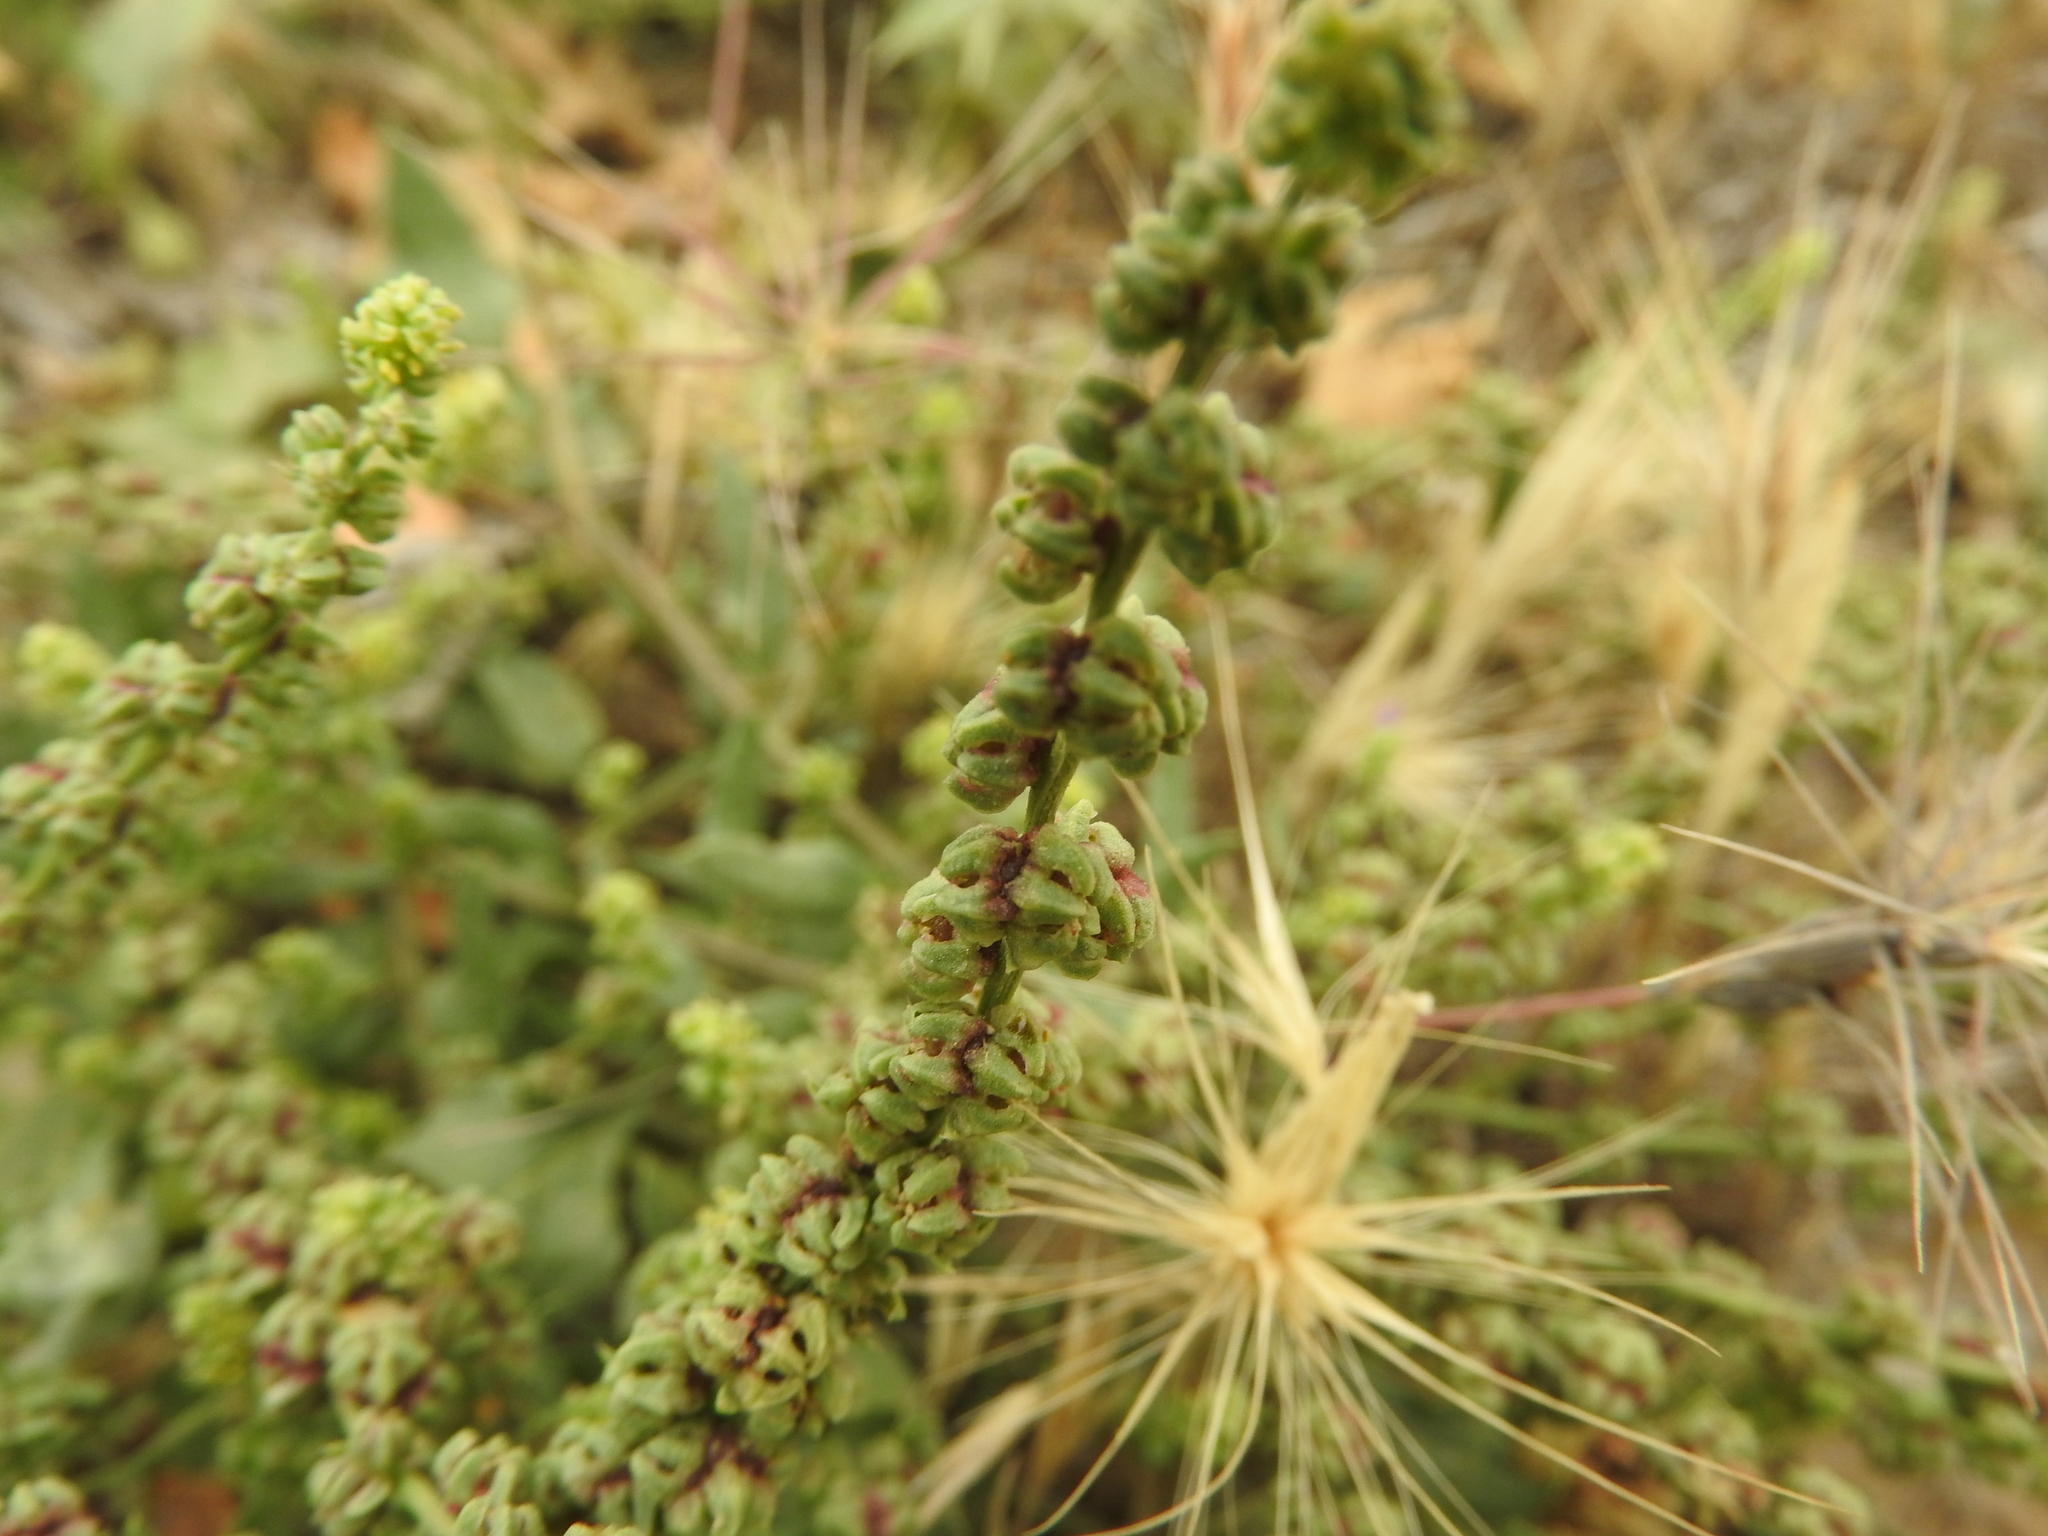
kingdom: Plantae
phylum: Tracheophyta
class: Magnoliopsida
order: Caryophyllales
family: Amaranthaceae
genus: Beta
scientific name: Beta vulgaris
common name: Beet
